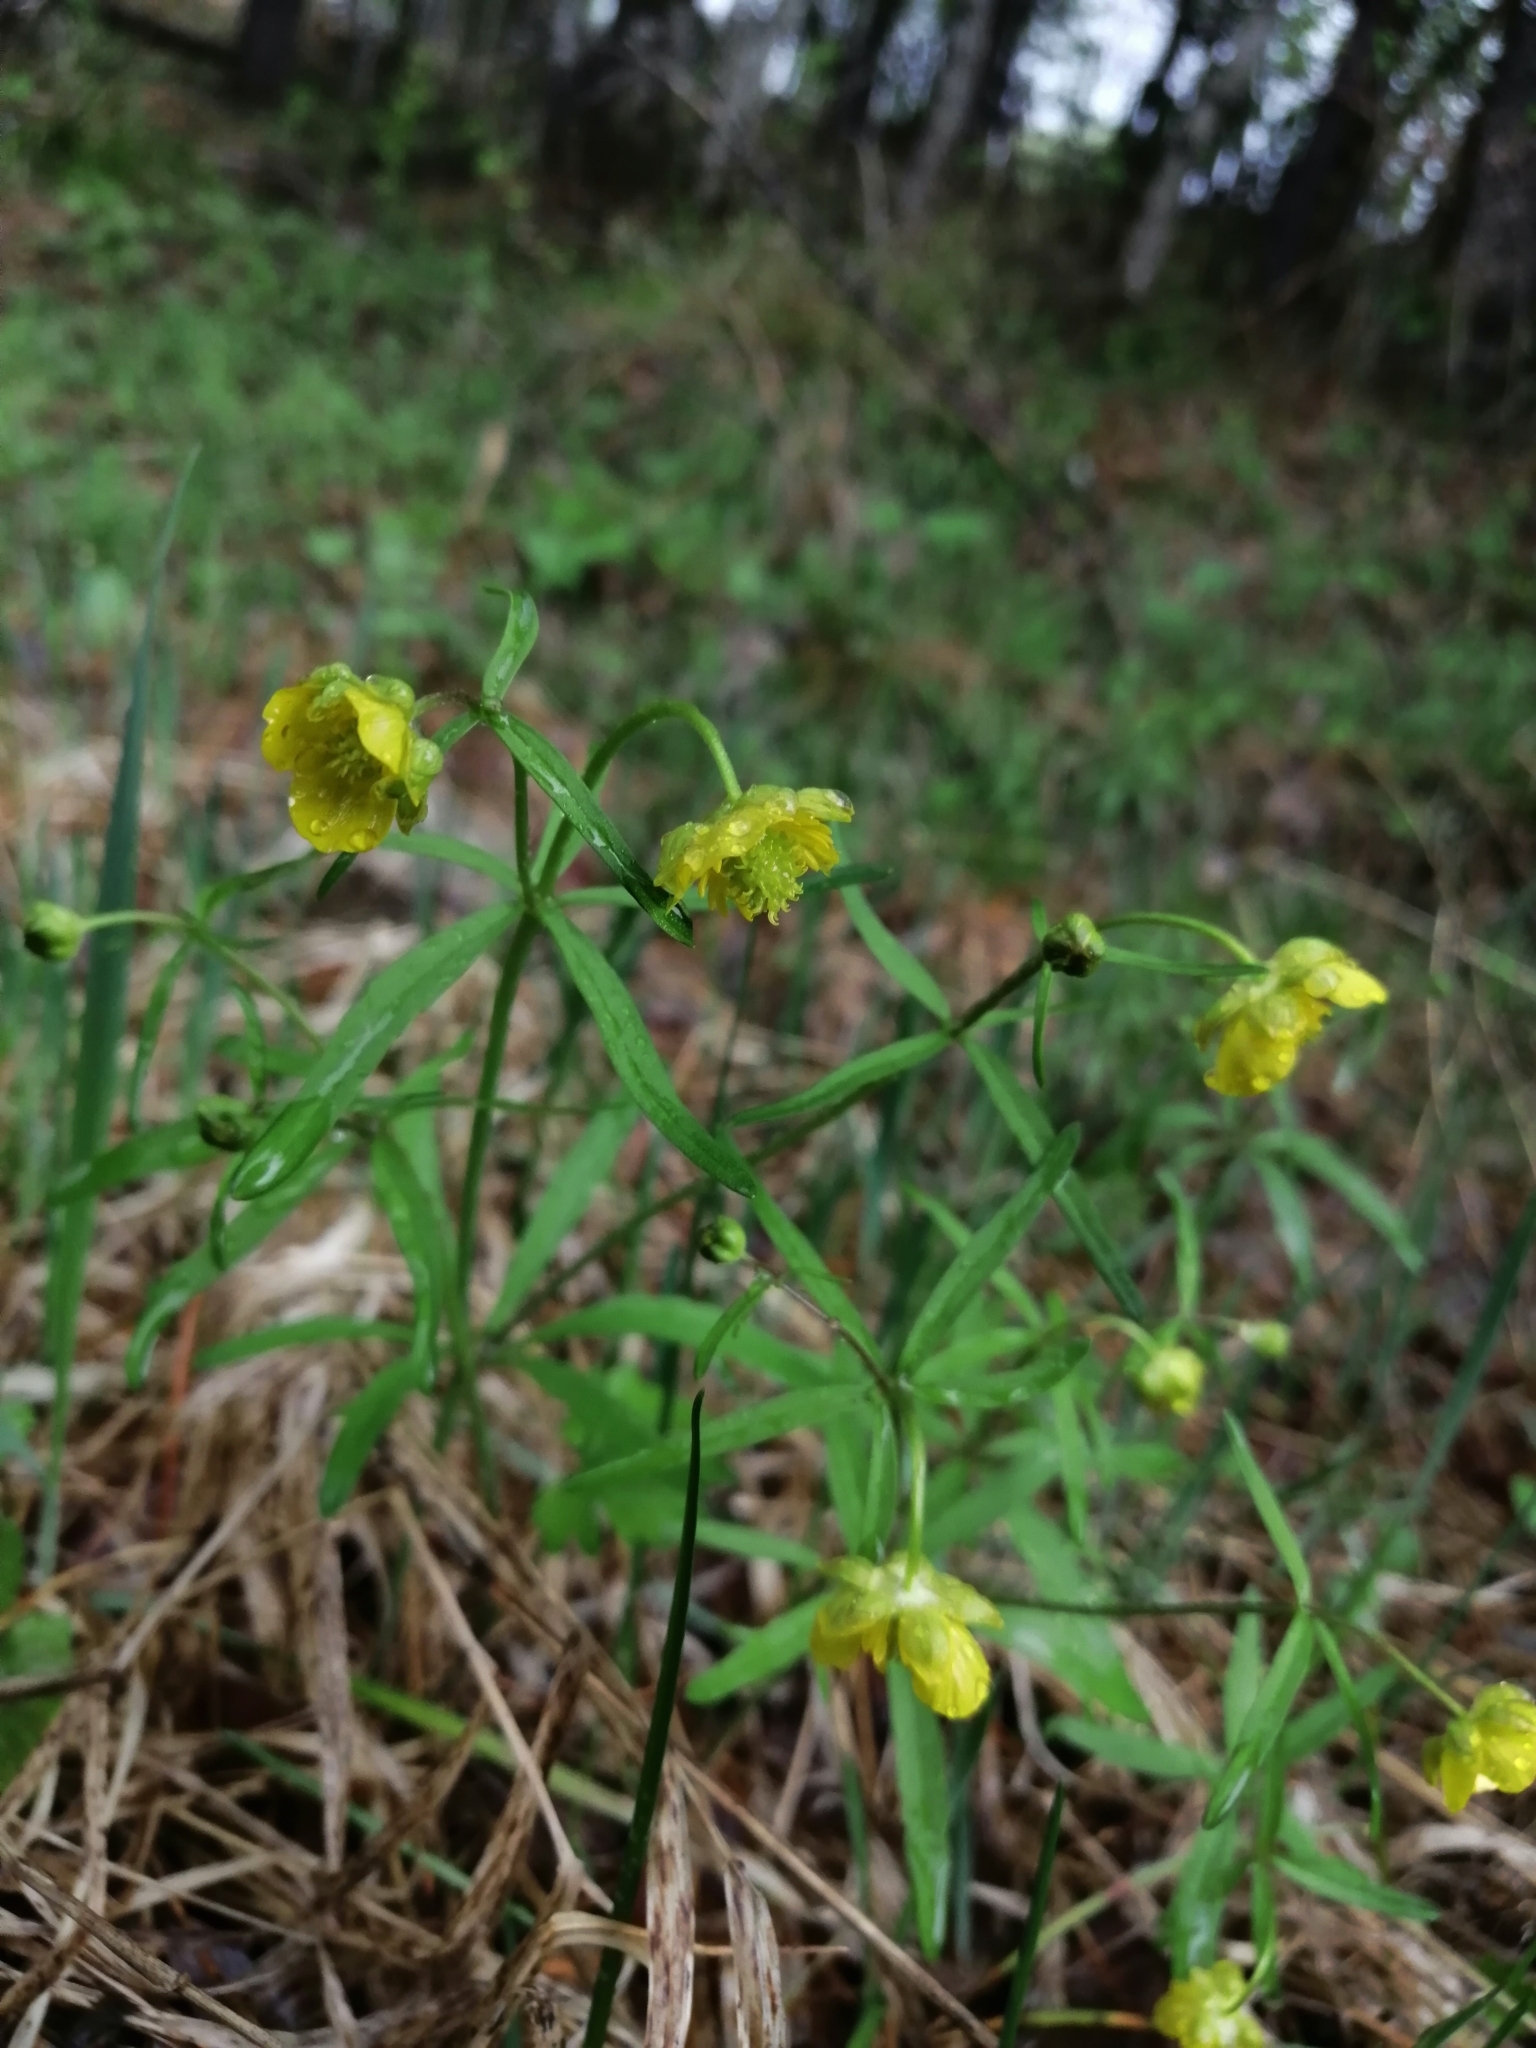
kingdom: Plantae
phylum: Tracheophyta
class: Magnoliopsida
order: Ranunculales
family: Ranunculaceae
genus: Ranunculus
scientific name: Ranunculus monophyllus
